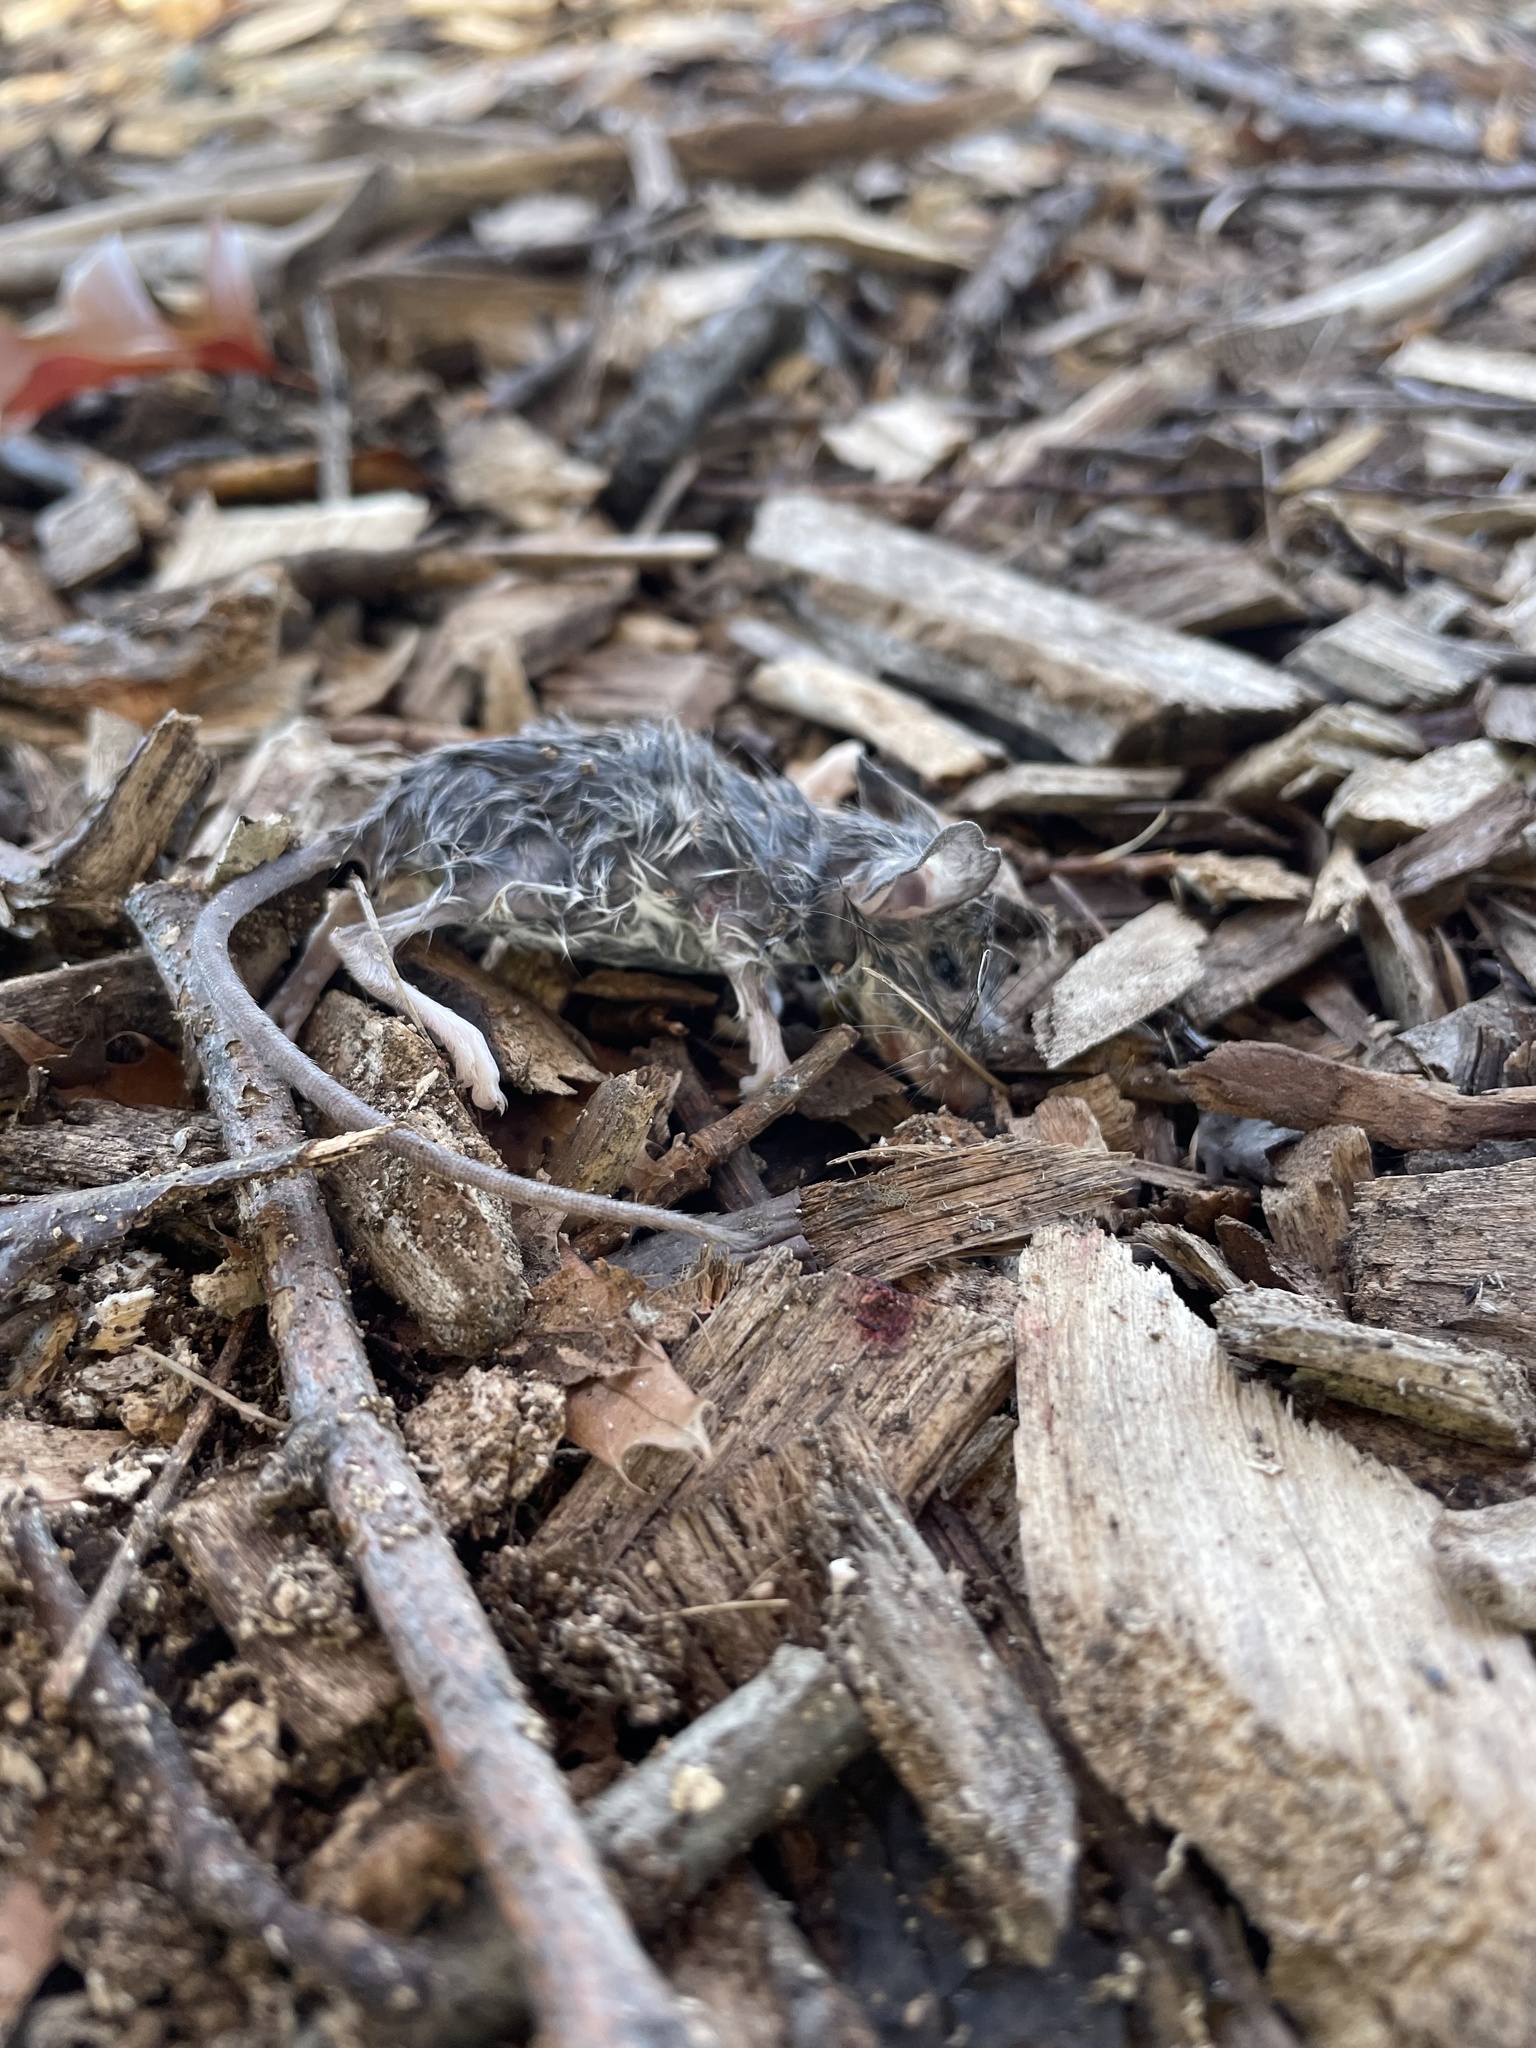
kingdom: Animalia
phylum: Chordata
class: Mammalia
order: Rodentia
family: Cricetidae
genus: Peromyscus
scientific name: Peromyscus leucopus
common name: White-footed deermouse
